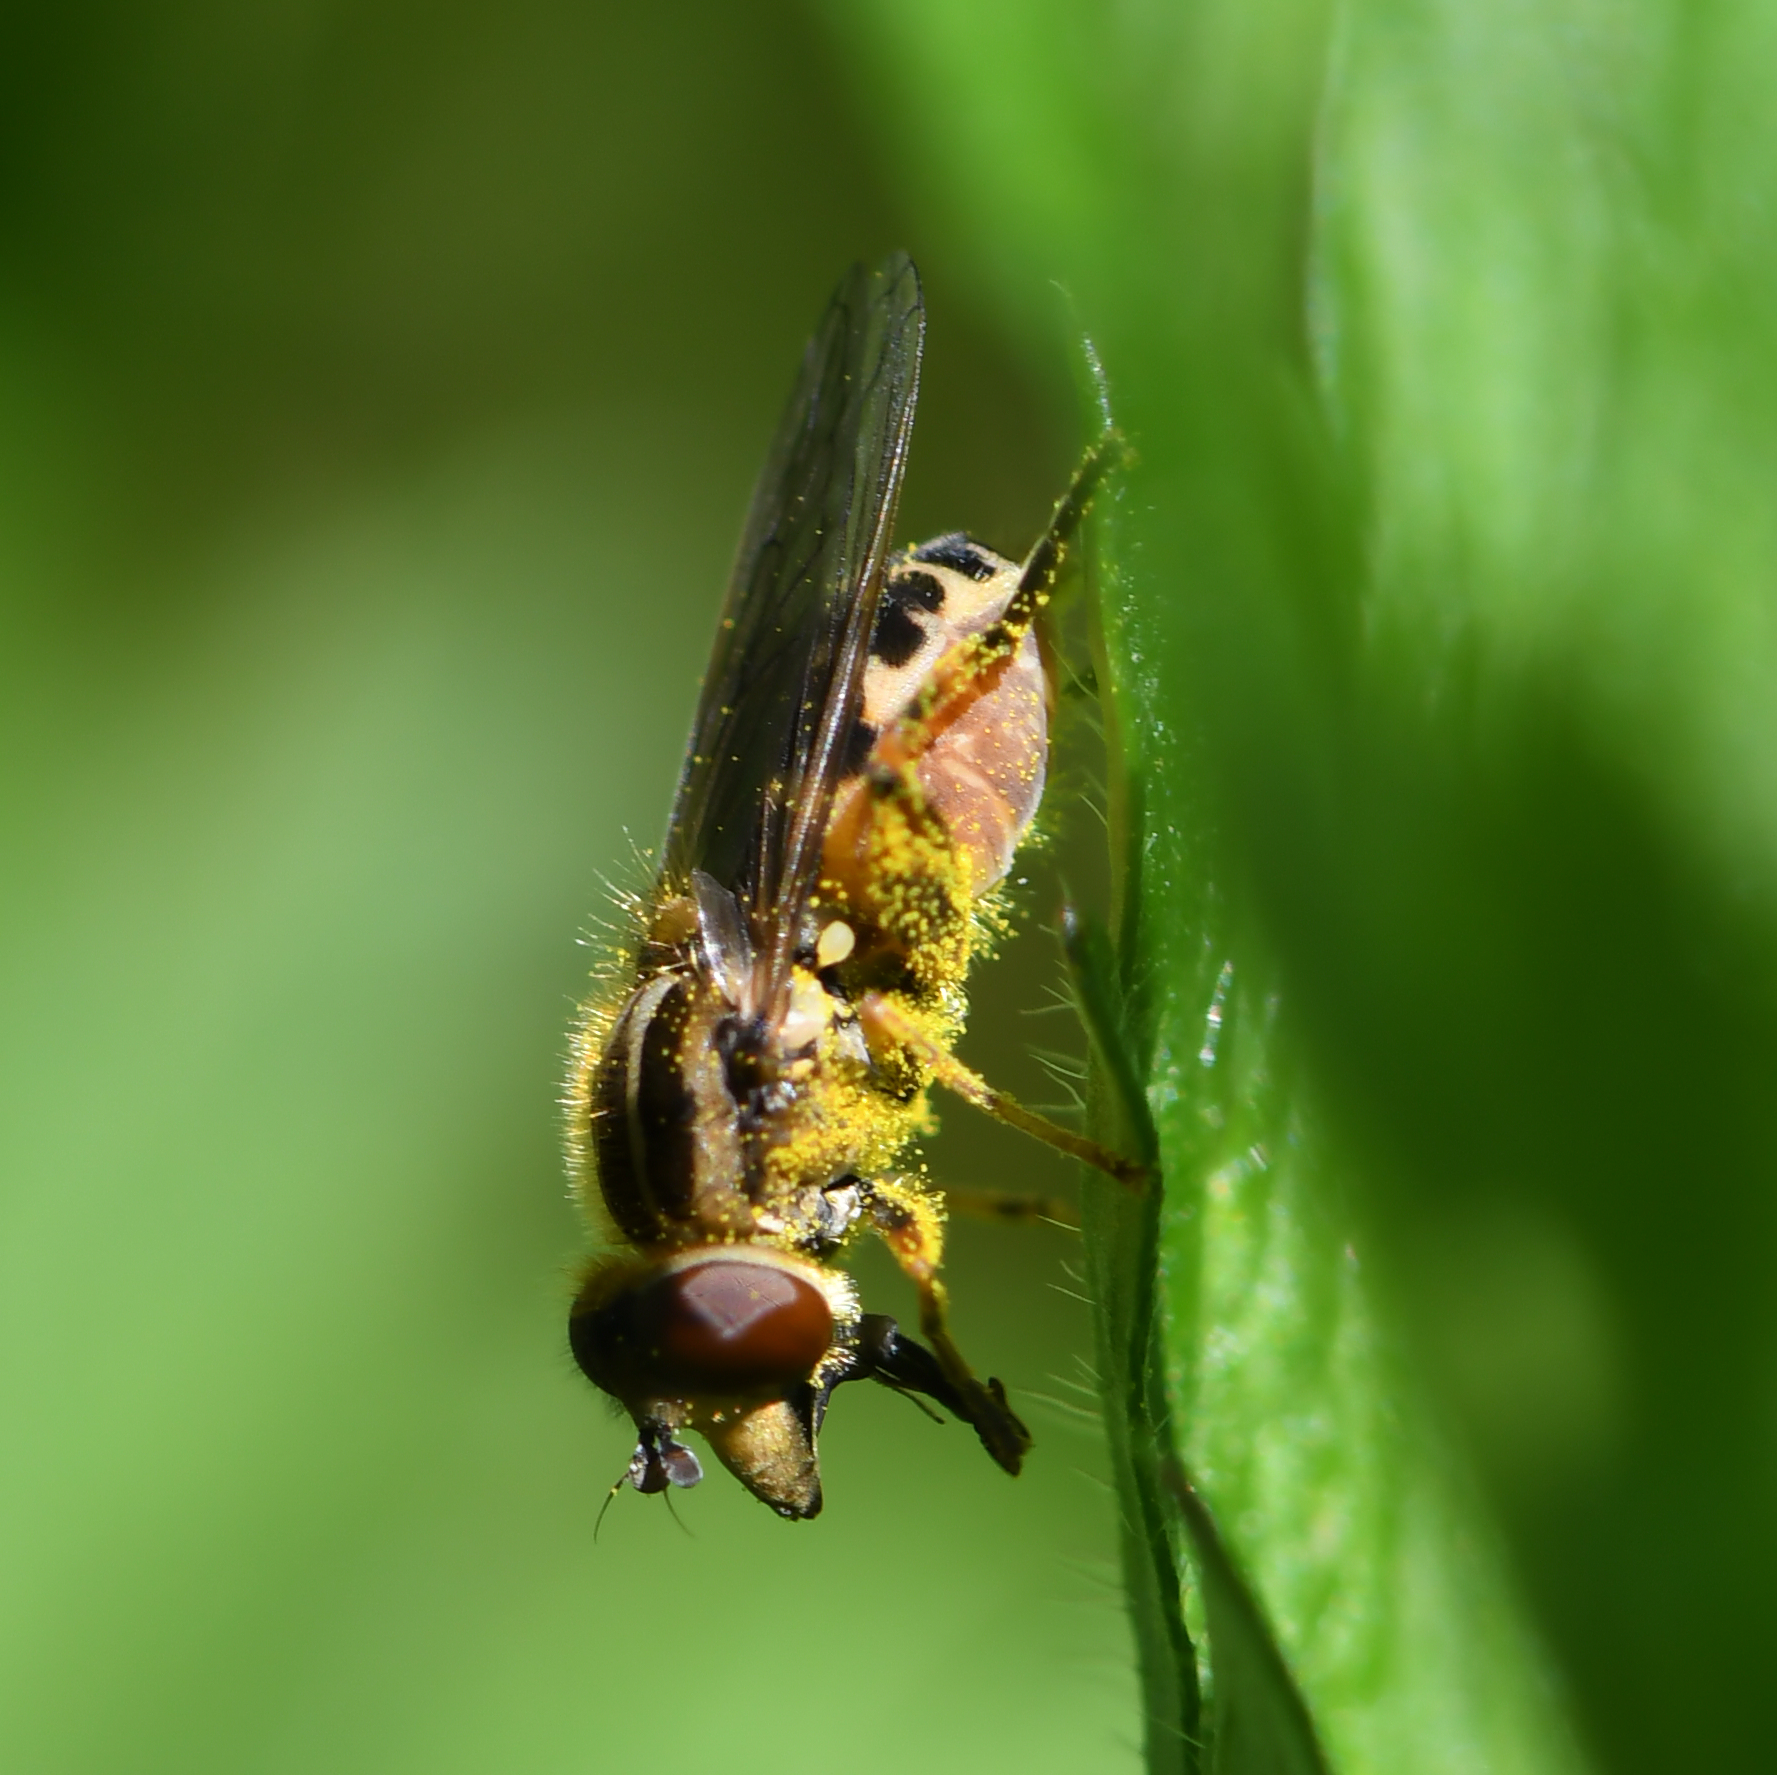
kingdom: Animalia
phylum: Arthropoda
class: Insecta
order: Diptera
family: Syrphidae
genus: Eurimyia
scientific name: Eurimyia lineatus
